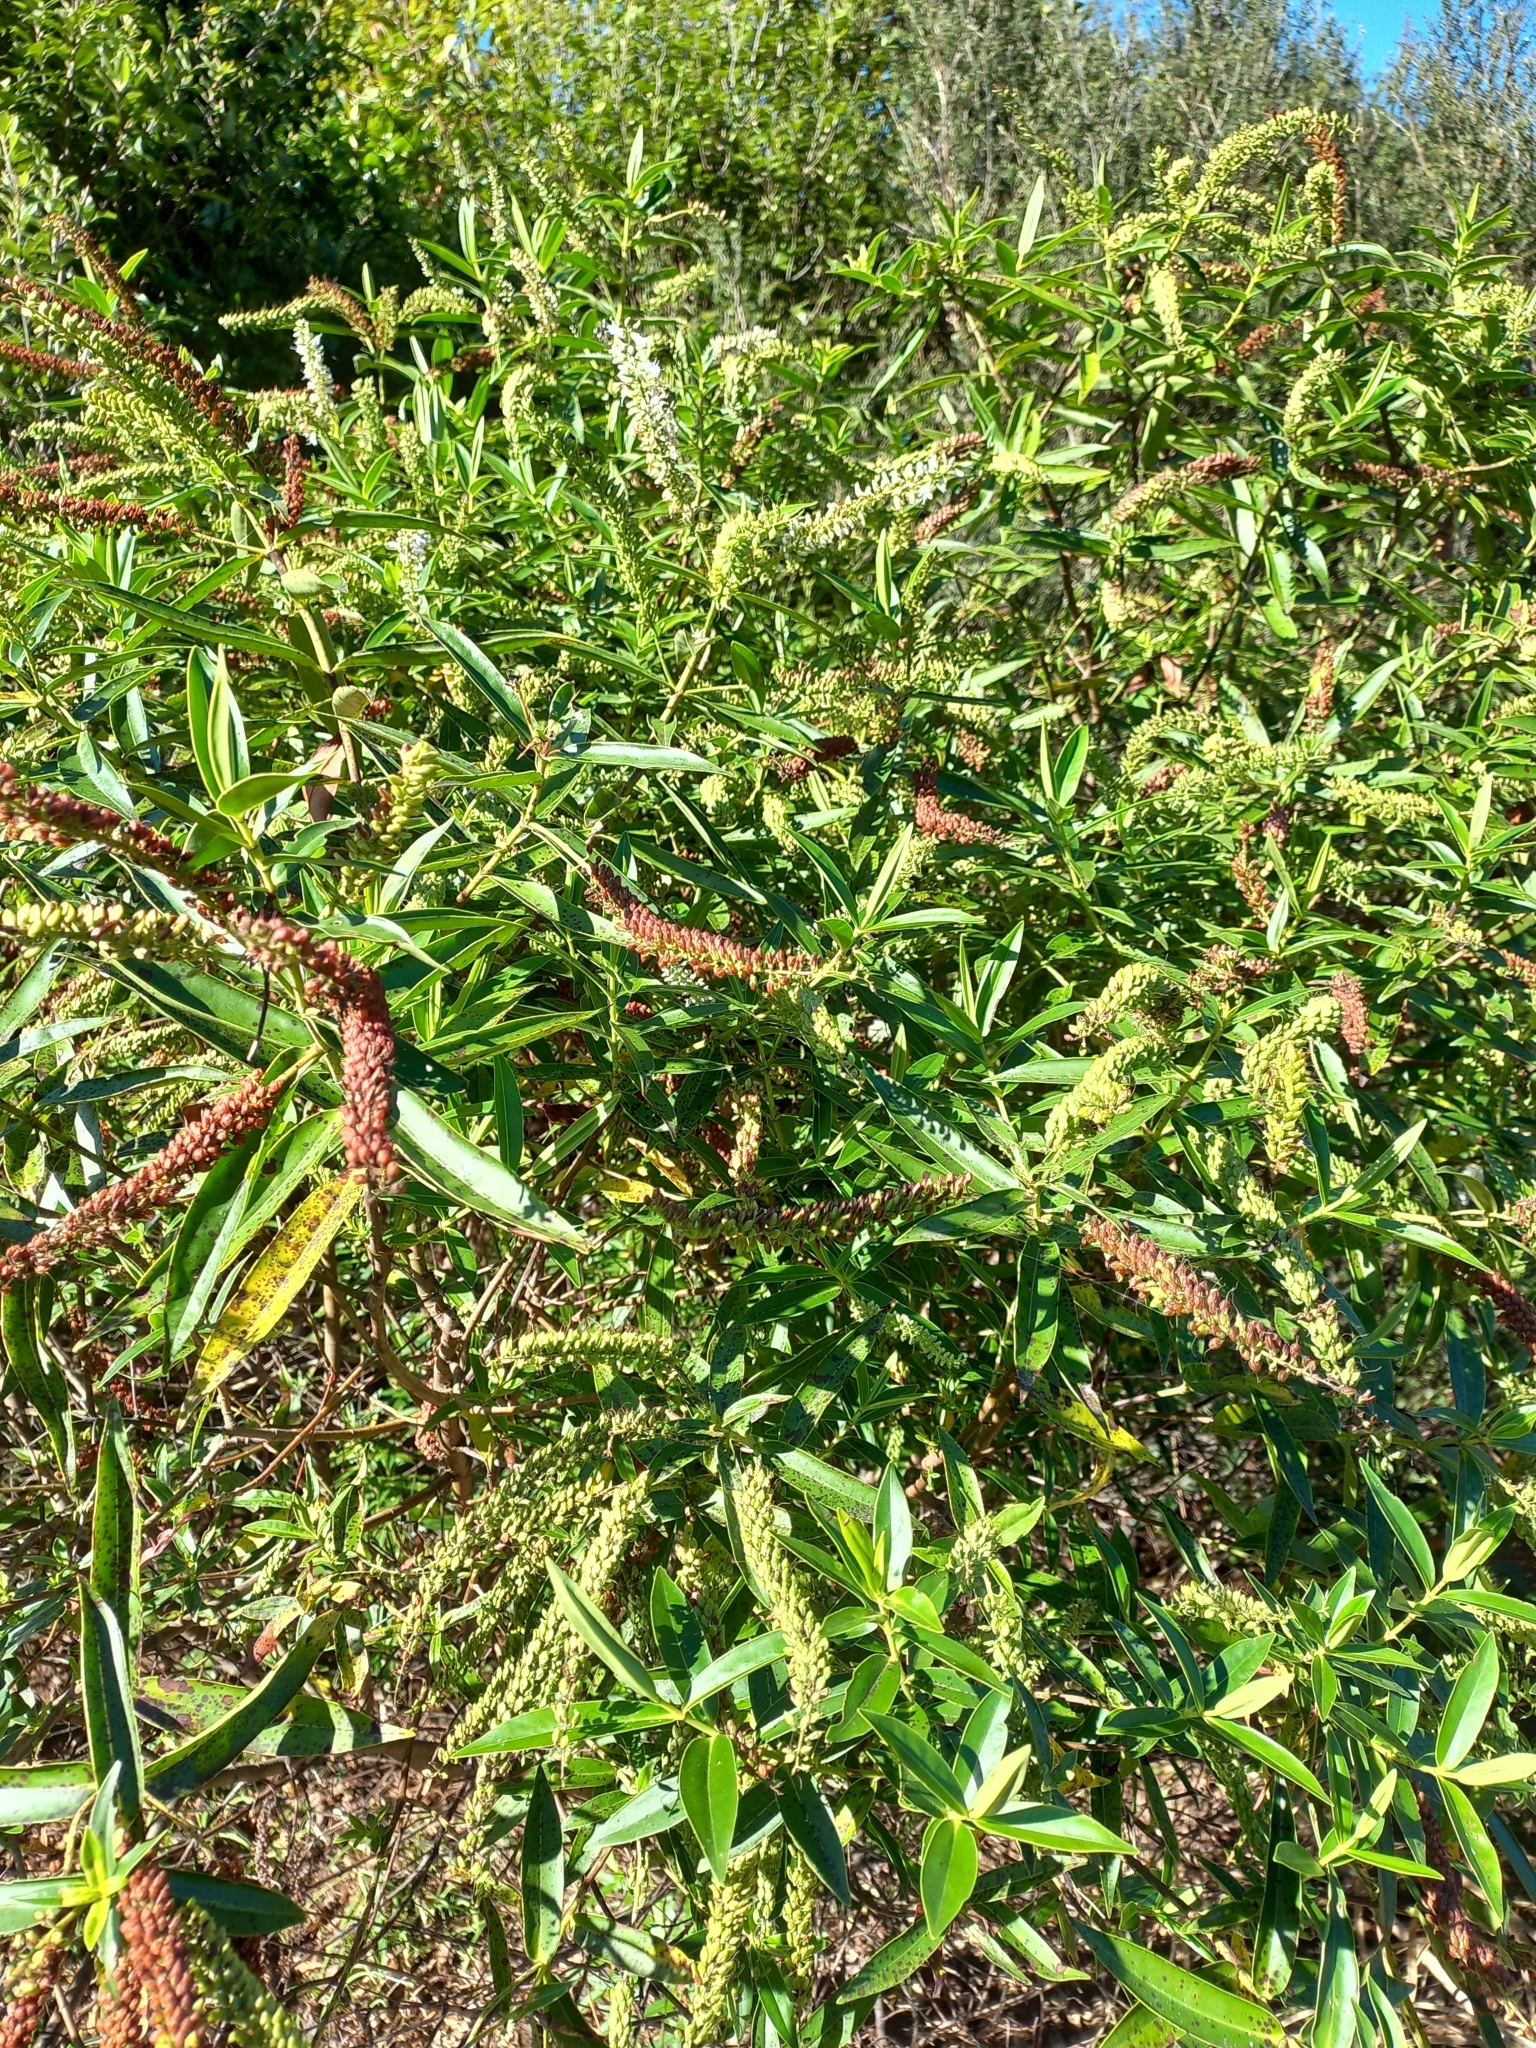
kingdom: Plantae
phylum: Tracheophyta
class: Magnoliopsida
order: Lamiales
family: Plantaginaceae
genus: Veronica
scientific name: Veronica stricta
